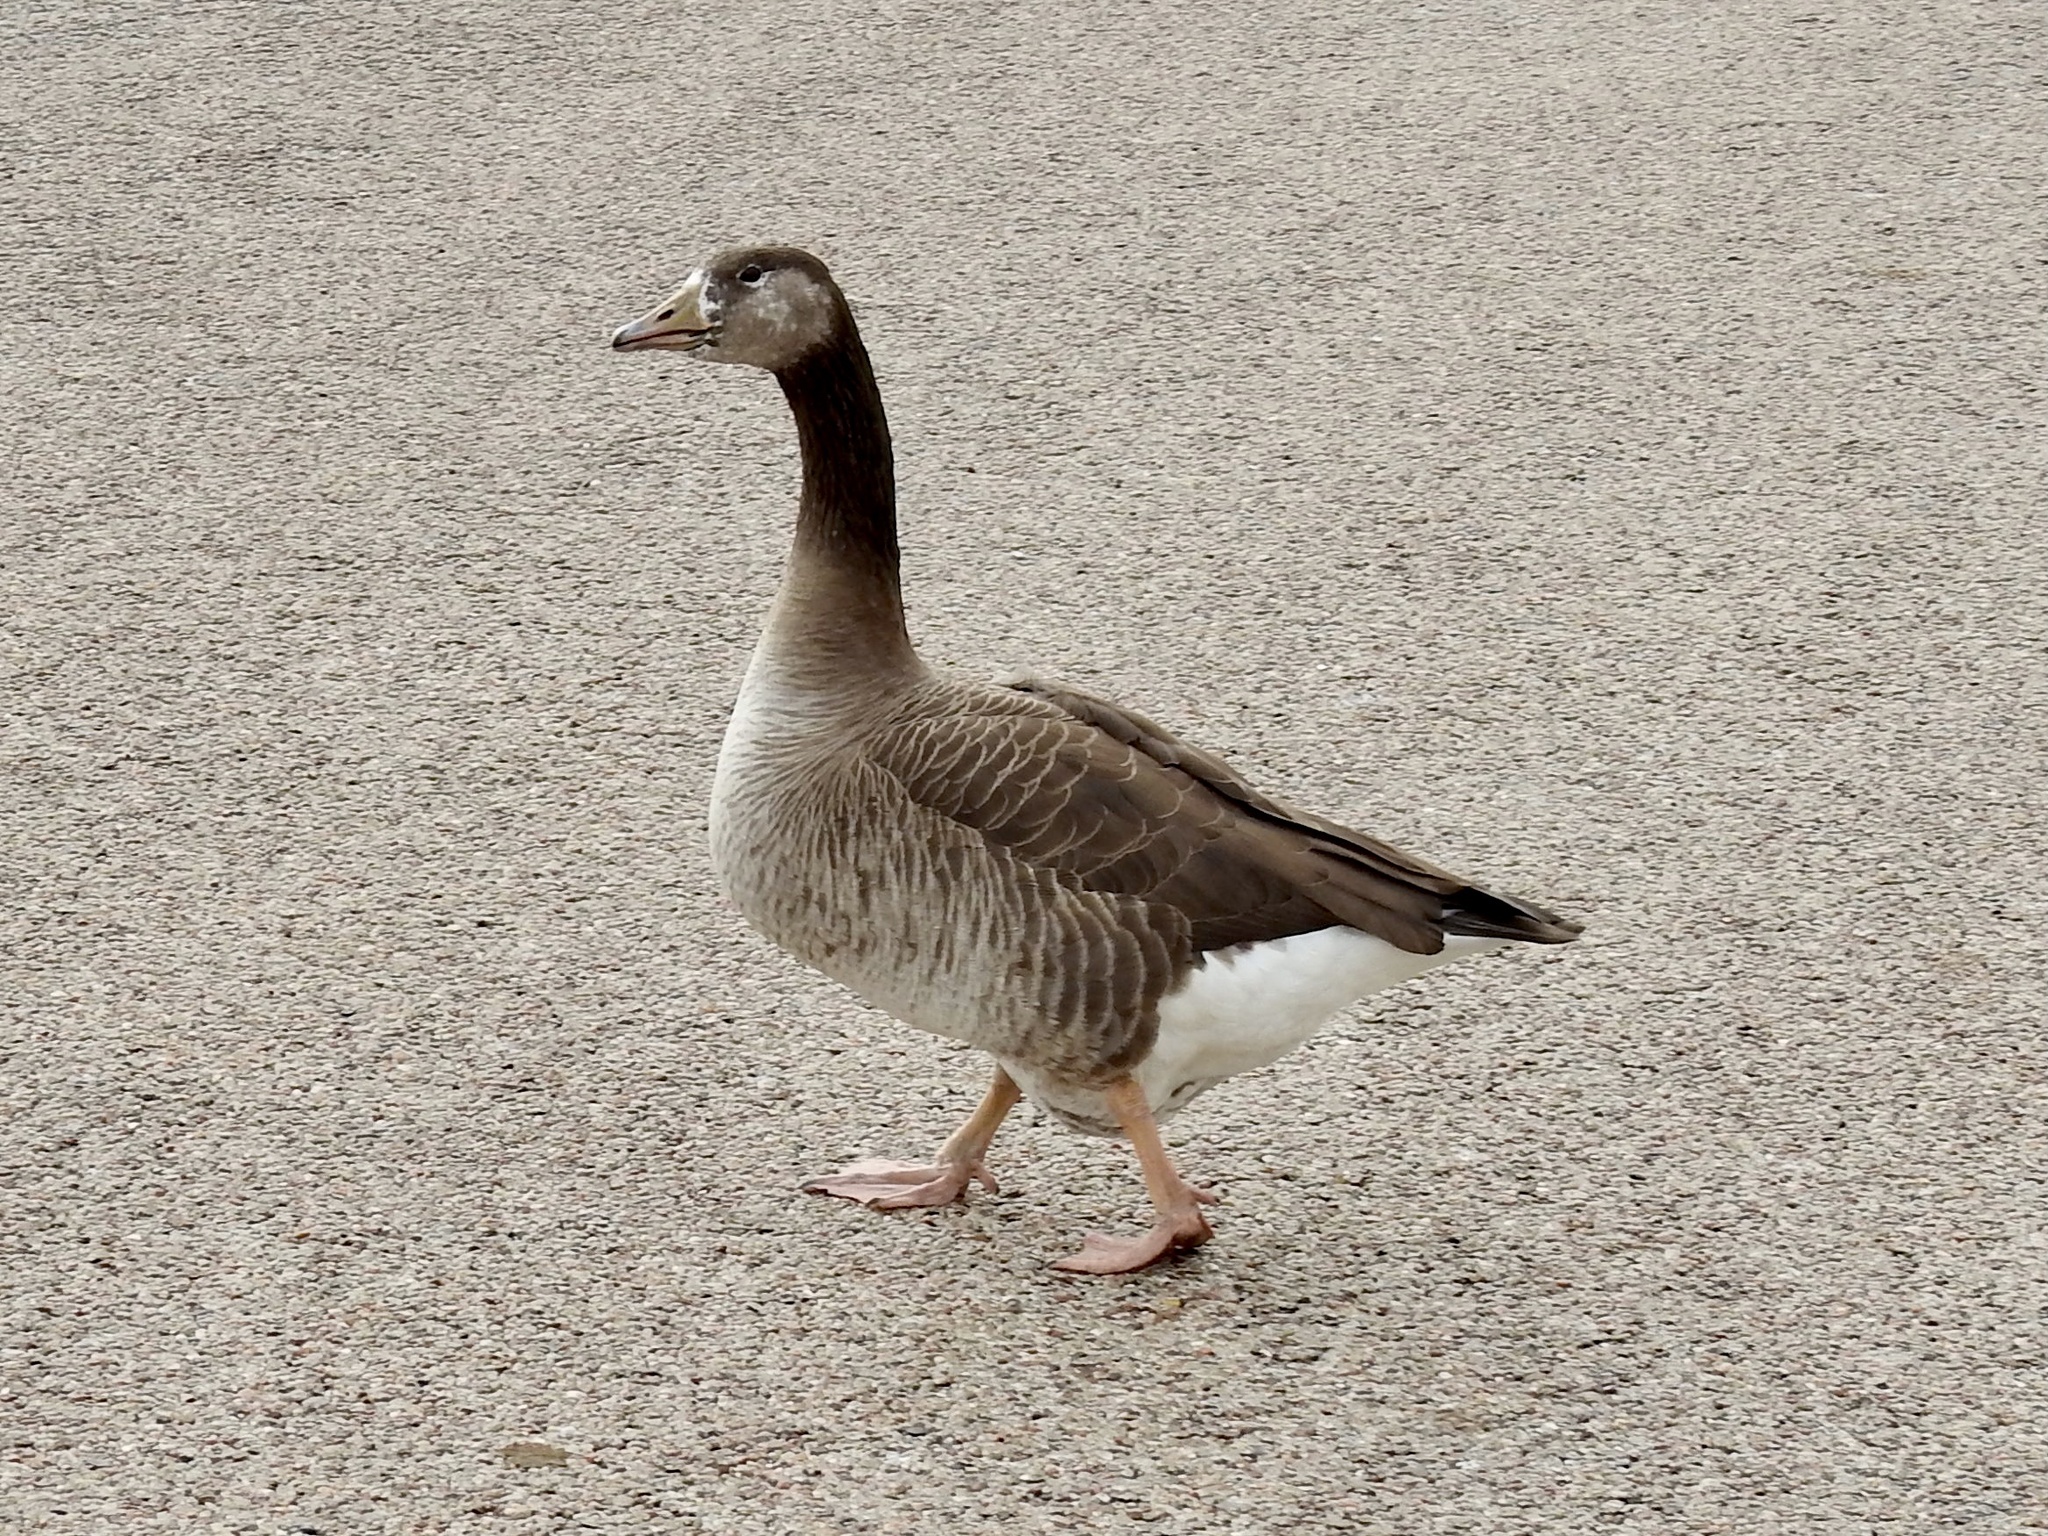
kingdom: Animalia
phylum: Chordata
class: Aves
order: Anseriformes
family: Anatidae
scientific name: Anatidae
